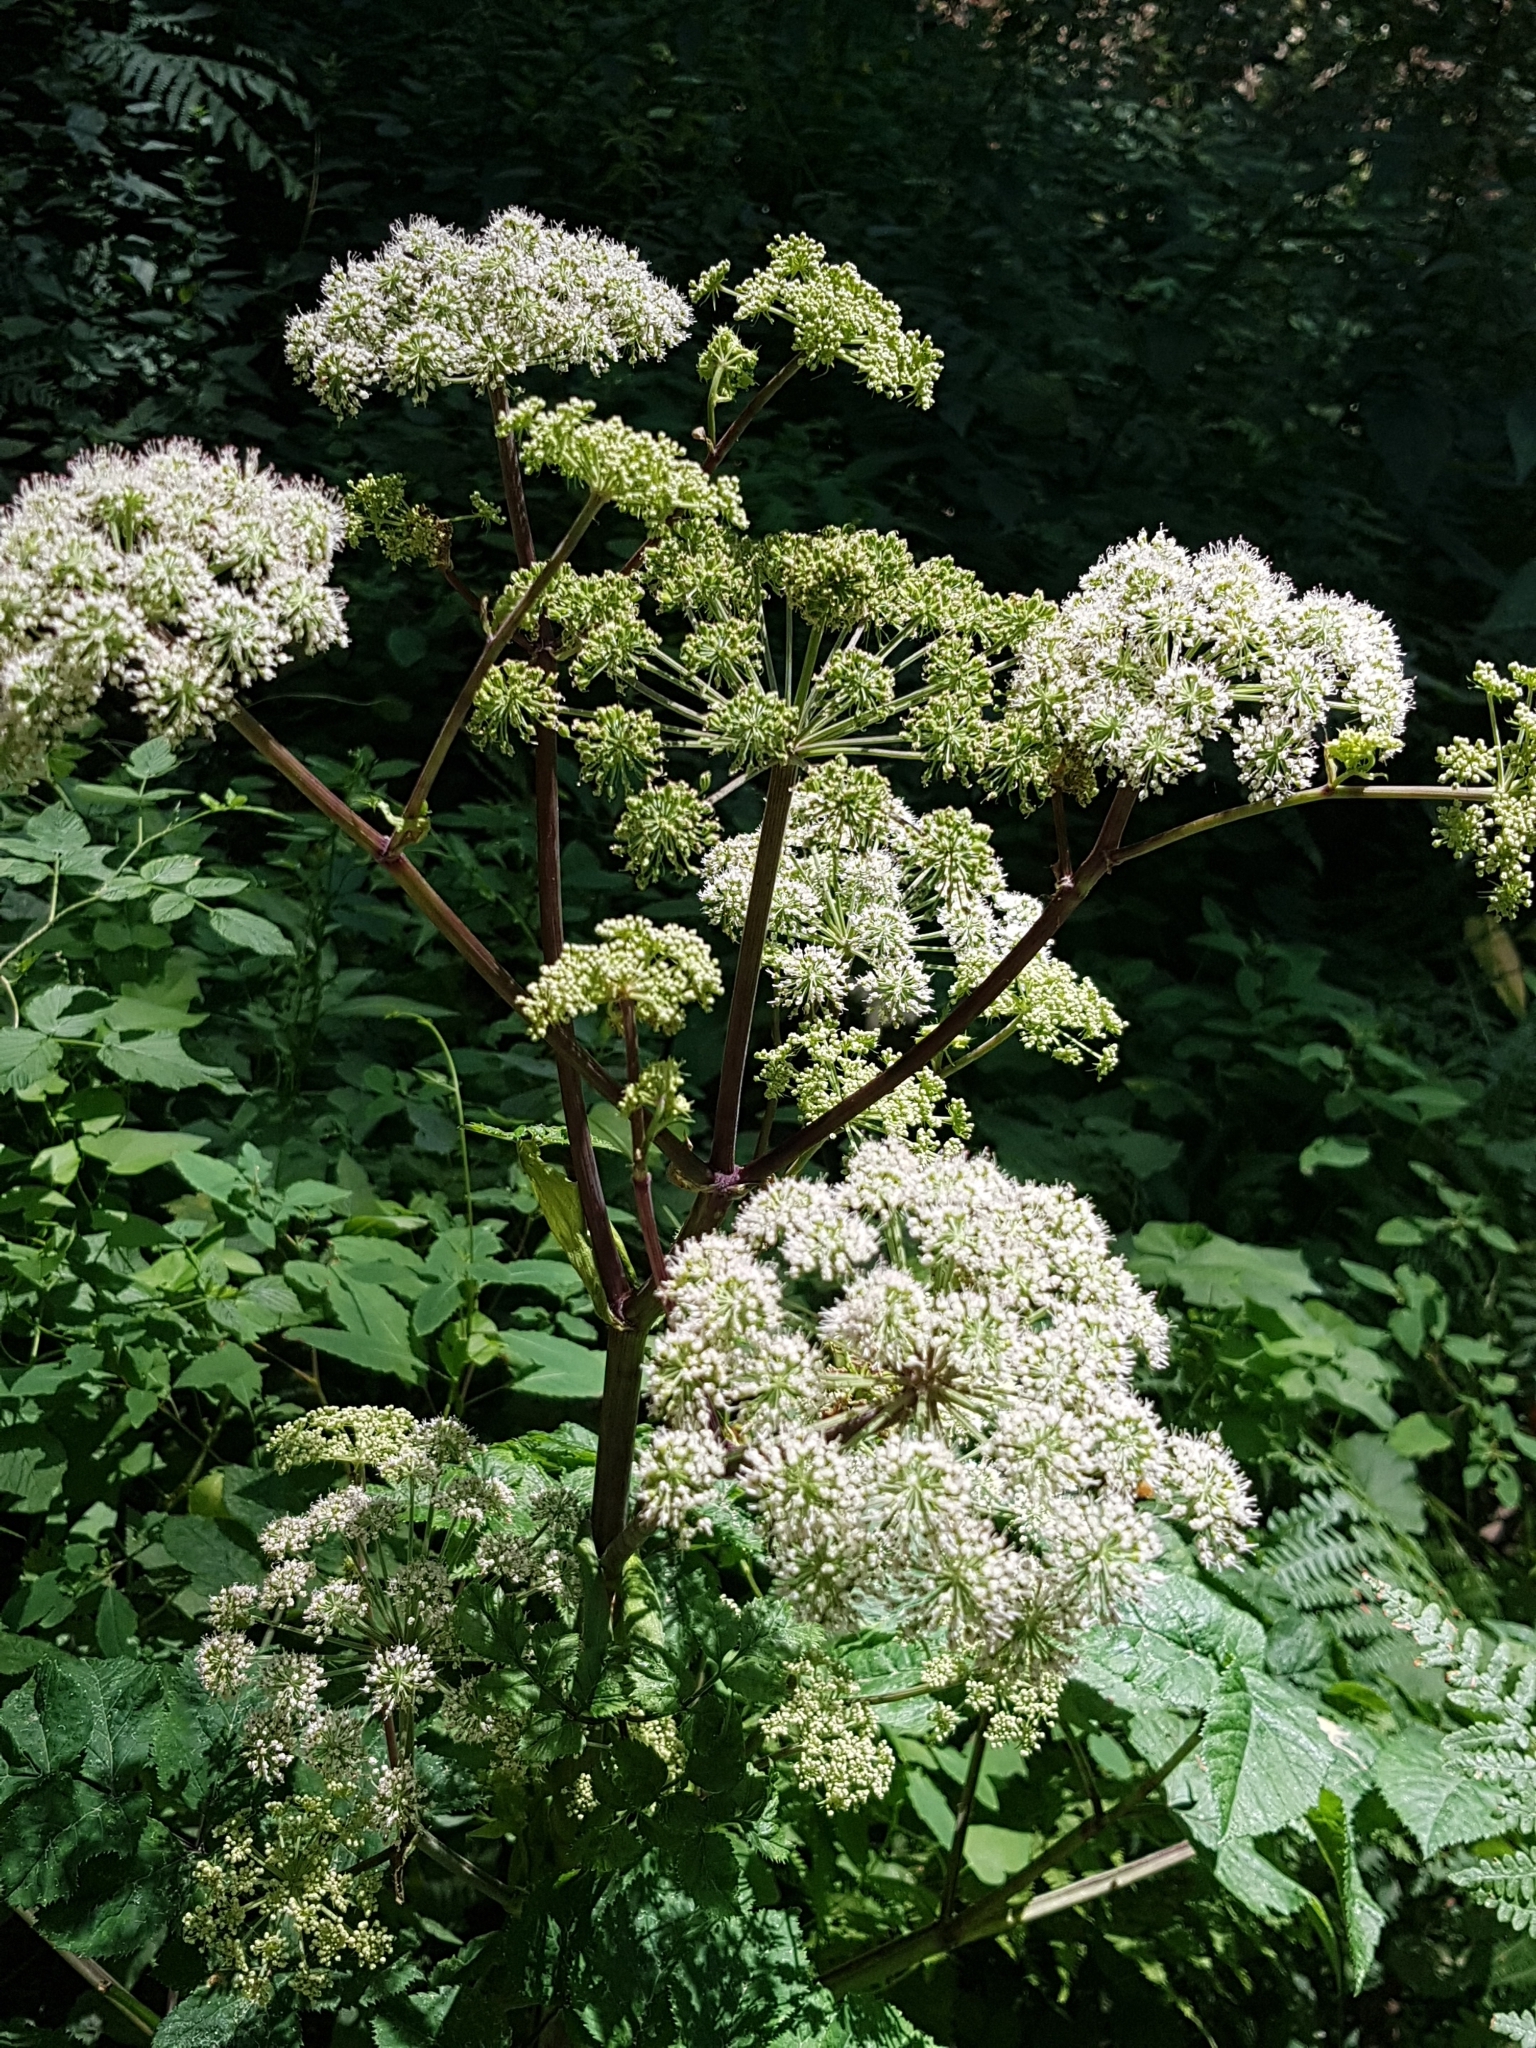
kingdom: Plantae
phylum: Tracheophyta
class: Magnoliopsida
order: Apiales
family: Apiaceae
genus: Angelica
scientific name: Angelica sylvestris
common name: Wild angelica
